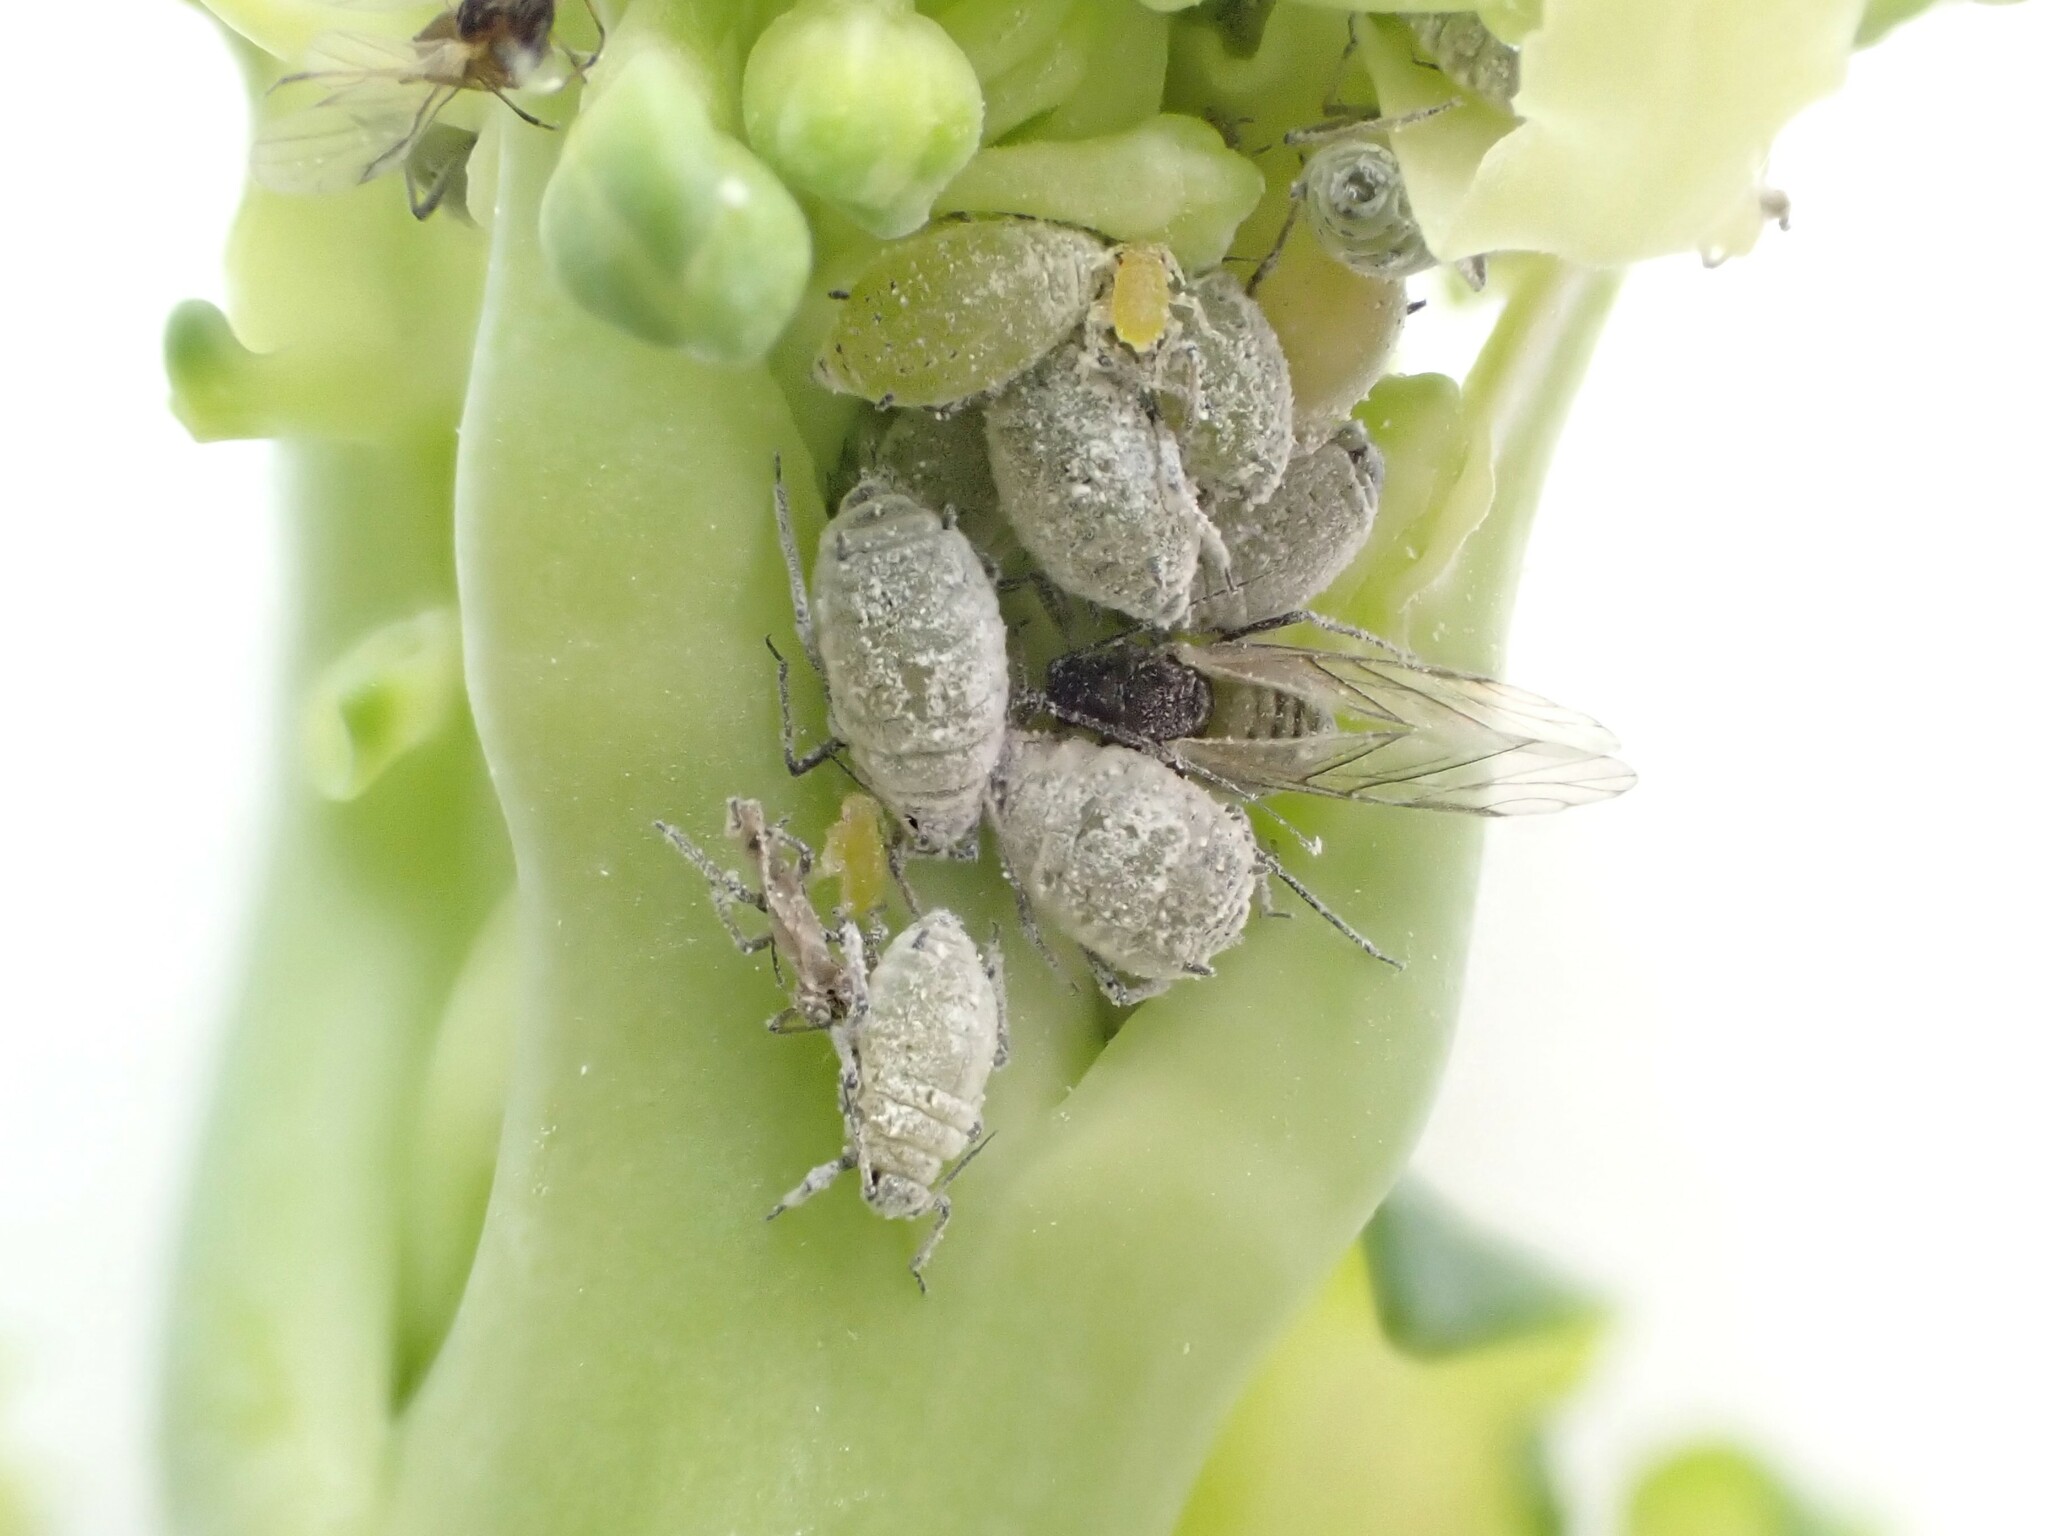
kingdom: Animalia
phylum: Arthropoda
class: Insecta
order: Hemiptera
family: Aphididae
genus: Brevicoryne
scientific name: Brevicoryne brassicae
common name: Cabbage aphid
